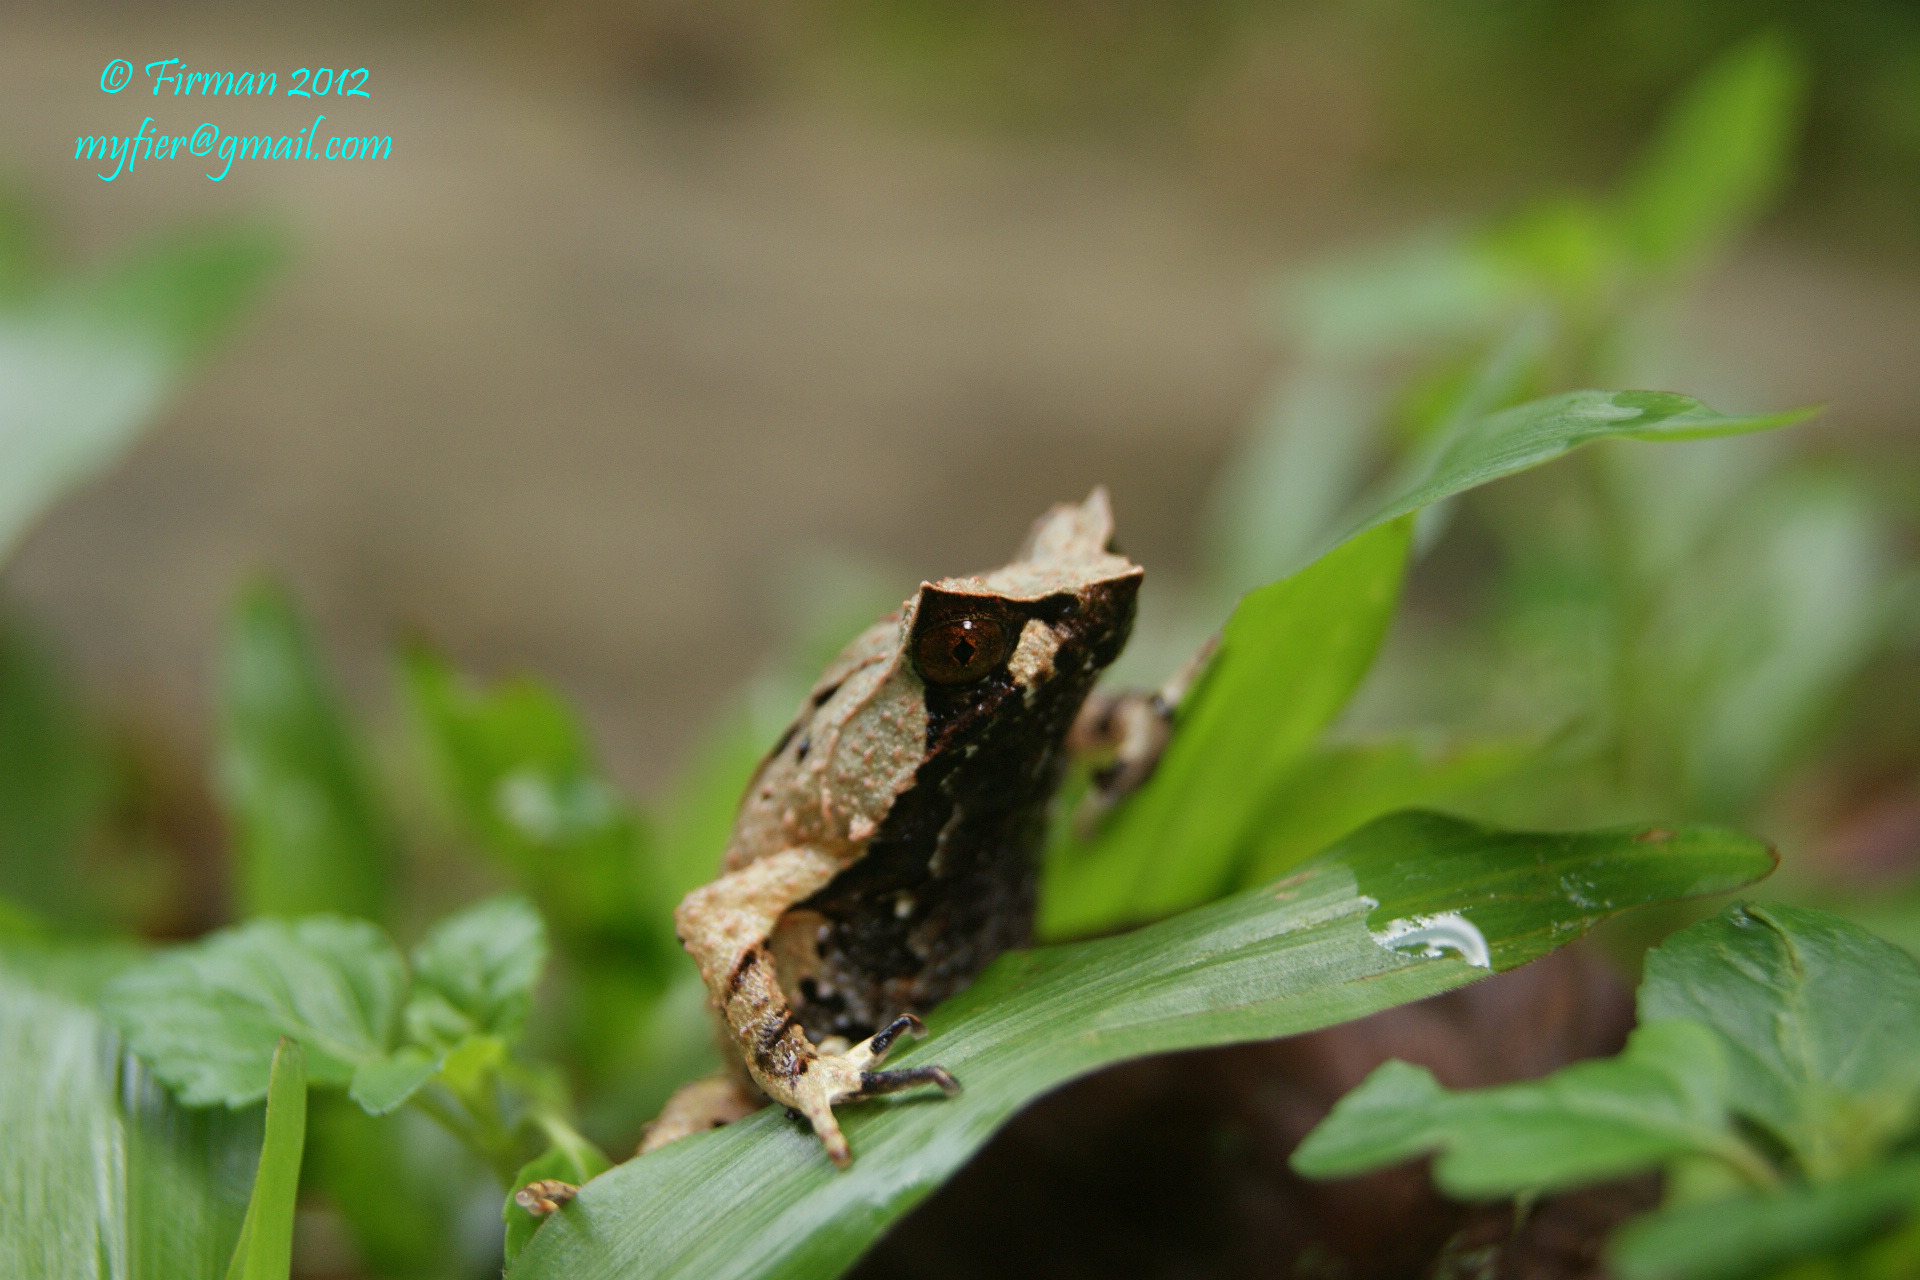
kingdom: Animalia
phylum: Chordata
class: Amphibia
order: Anura
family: Megophryidae
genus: Megophrys
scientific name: Megophrys montana
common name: Asian spadefoot toad
